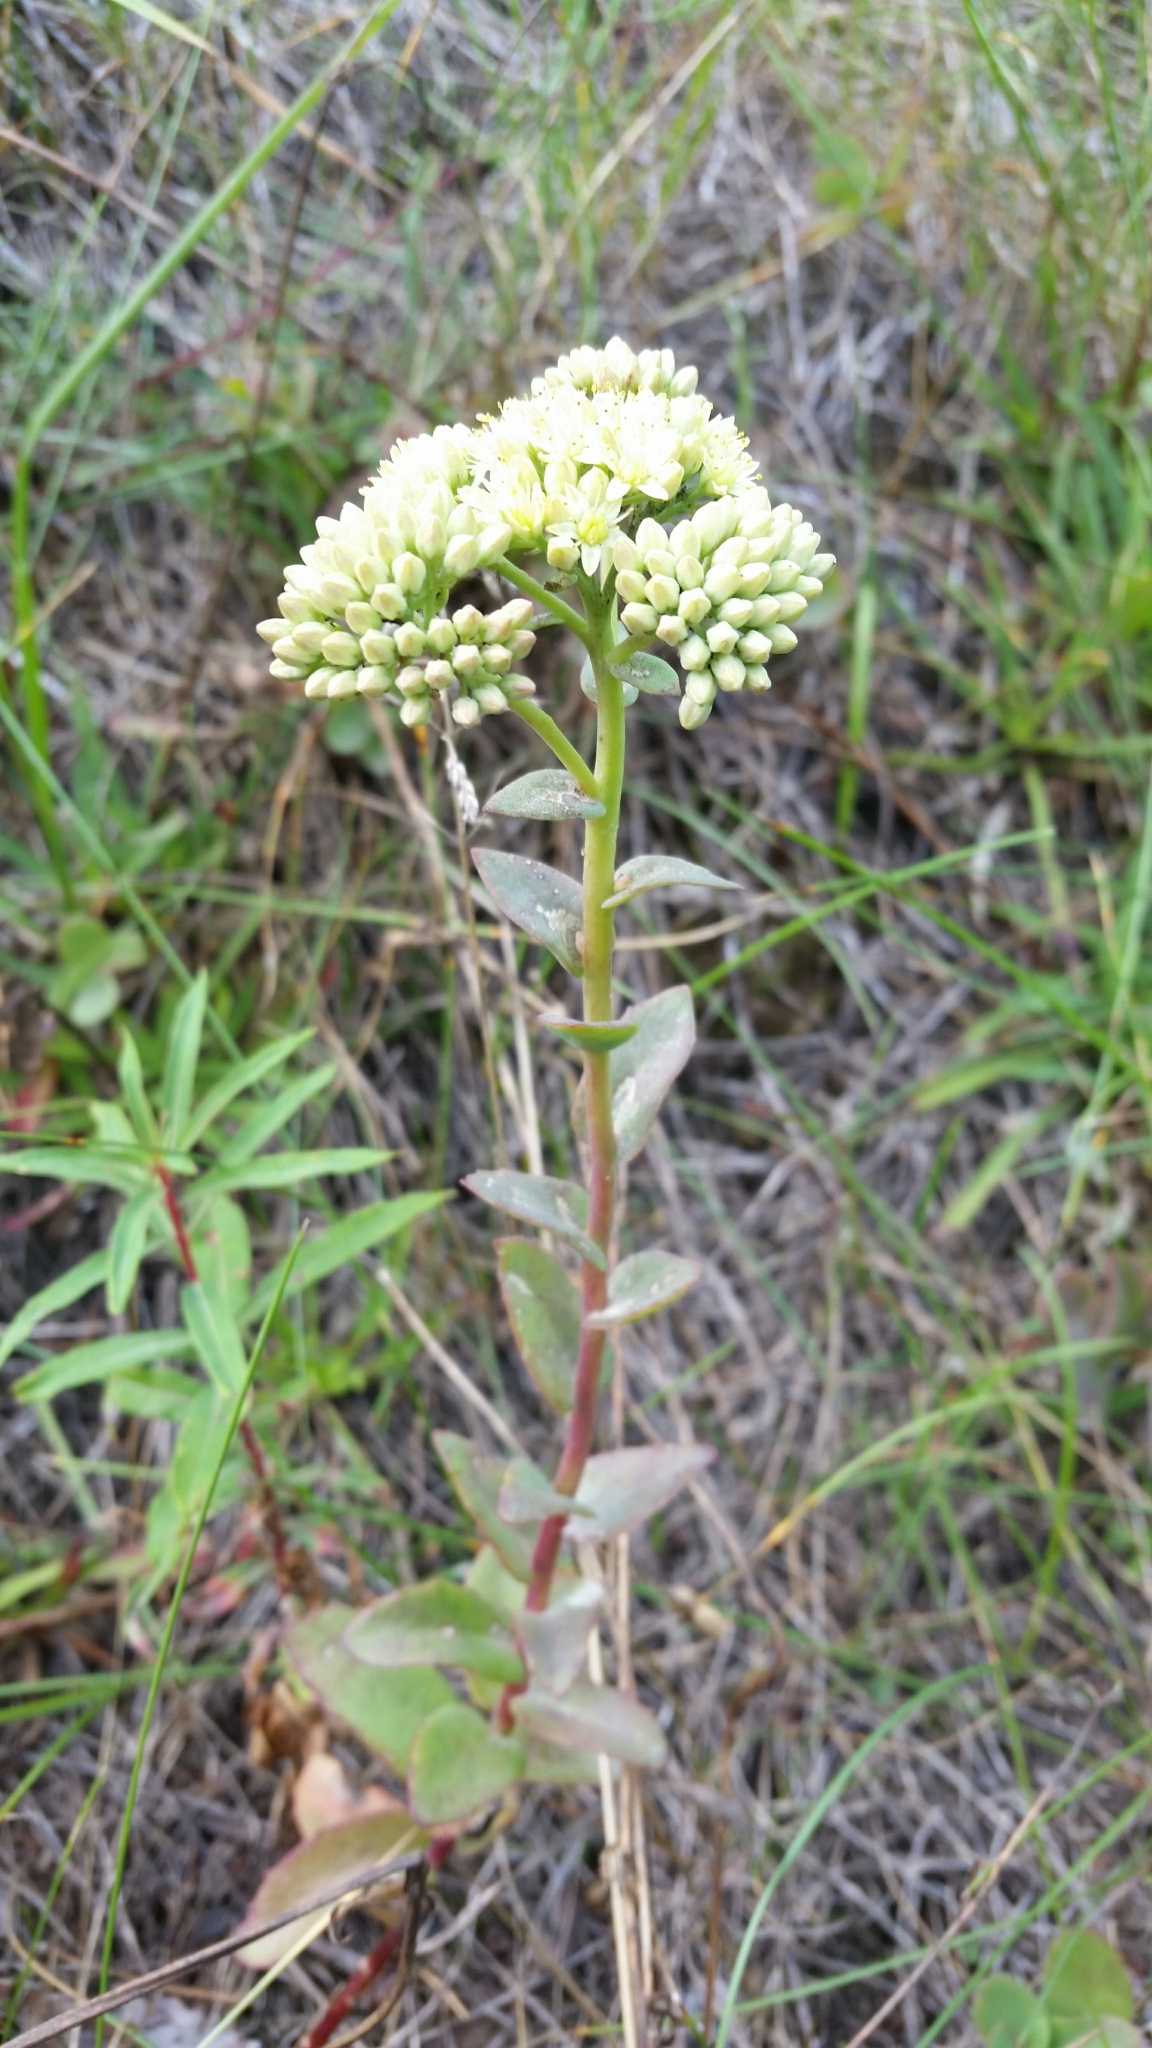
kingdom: Plantae
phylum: Tracheophyta
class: Magnoliopsida
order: Saxifragales
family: Crassulaceae
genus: Hylotelephium
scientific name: Hylotelephium maximum
